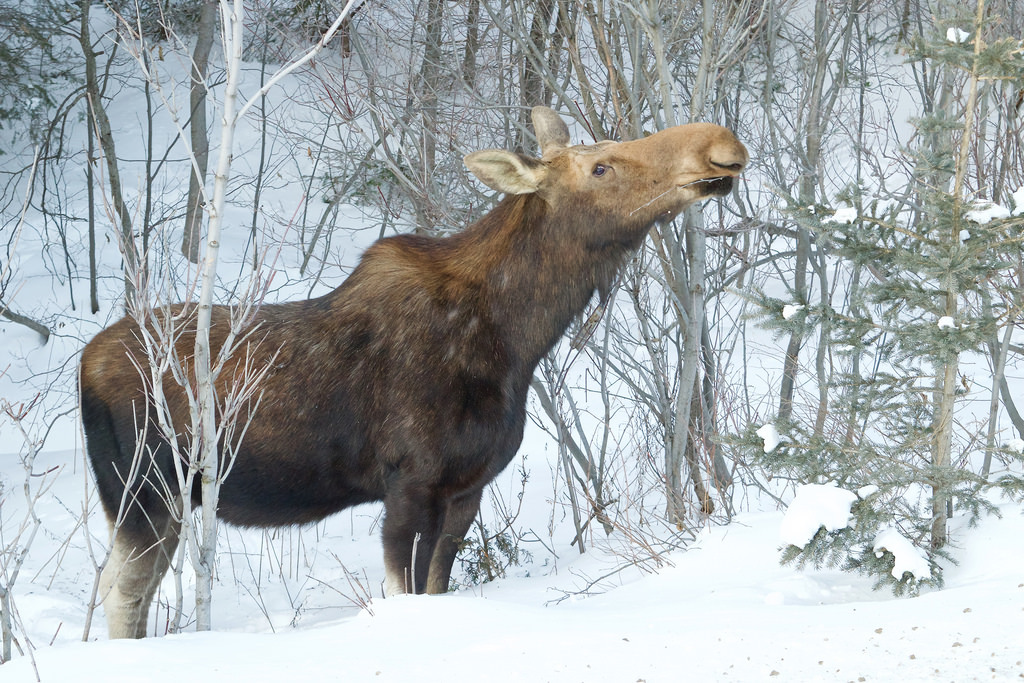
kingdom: Animalia
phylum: Chordata
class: Mammalia
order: Artiodactyla
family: Cervidae
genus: Alces
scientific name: Alces alces
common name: Moose
